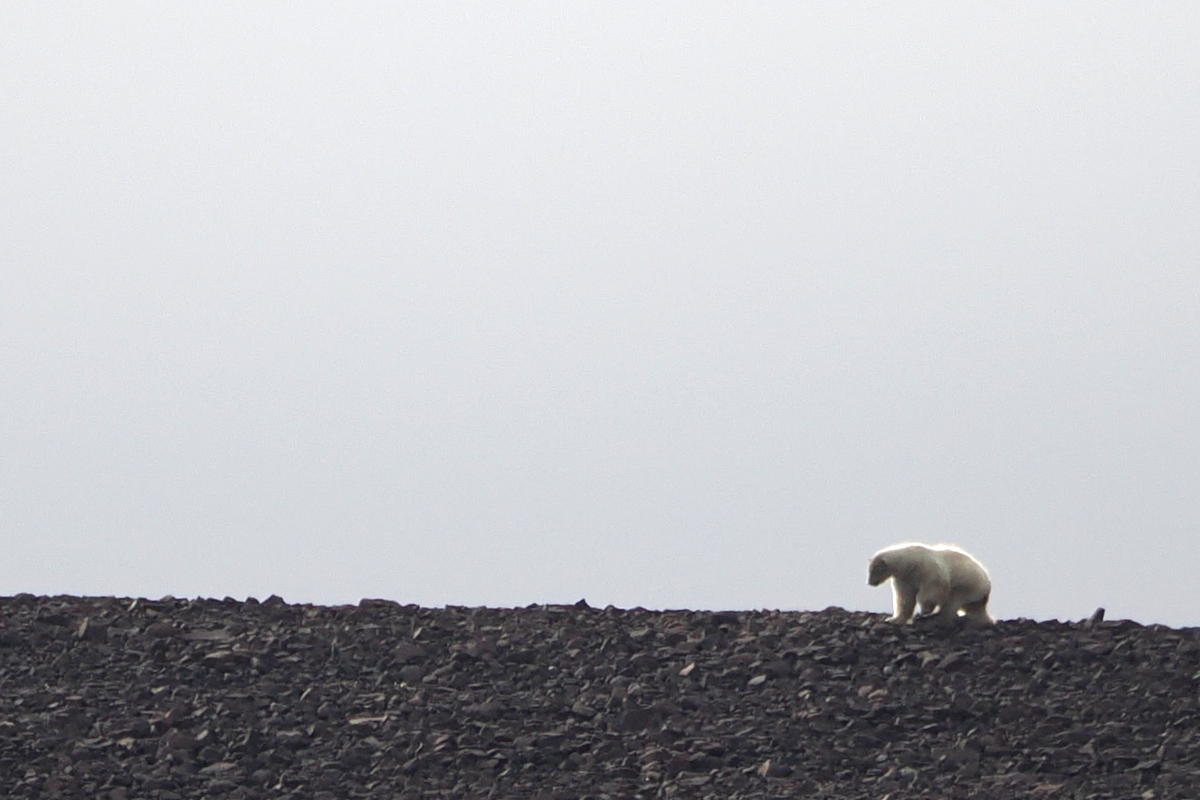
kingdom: Animalia
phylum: Chordata
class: Mammalia
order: Carnivora
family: Ursidae
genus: Ursus
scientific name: Ursus maritimus
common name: Polar bear
